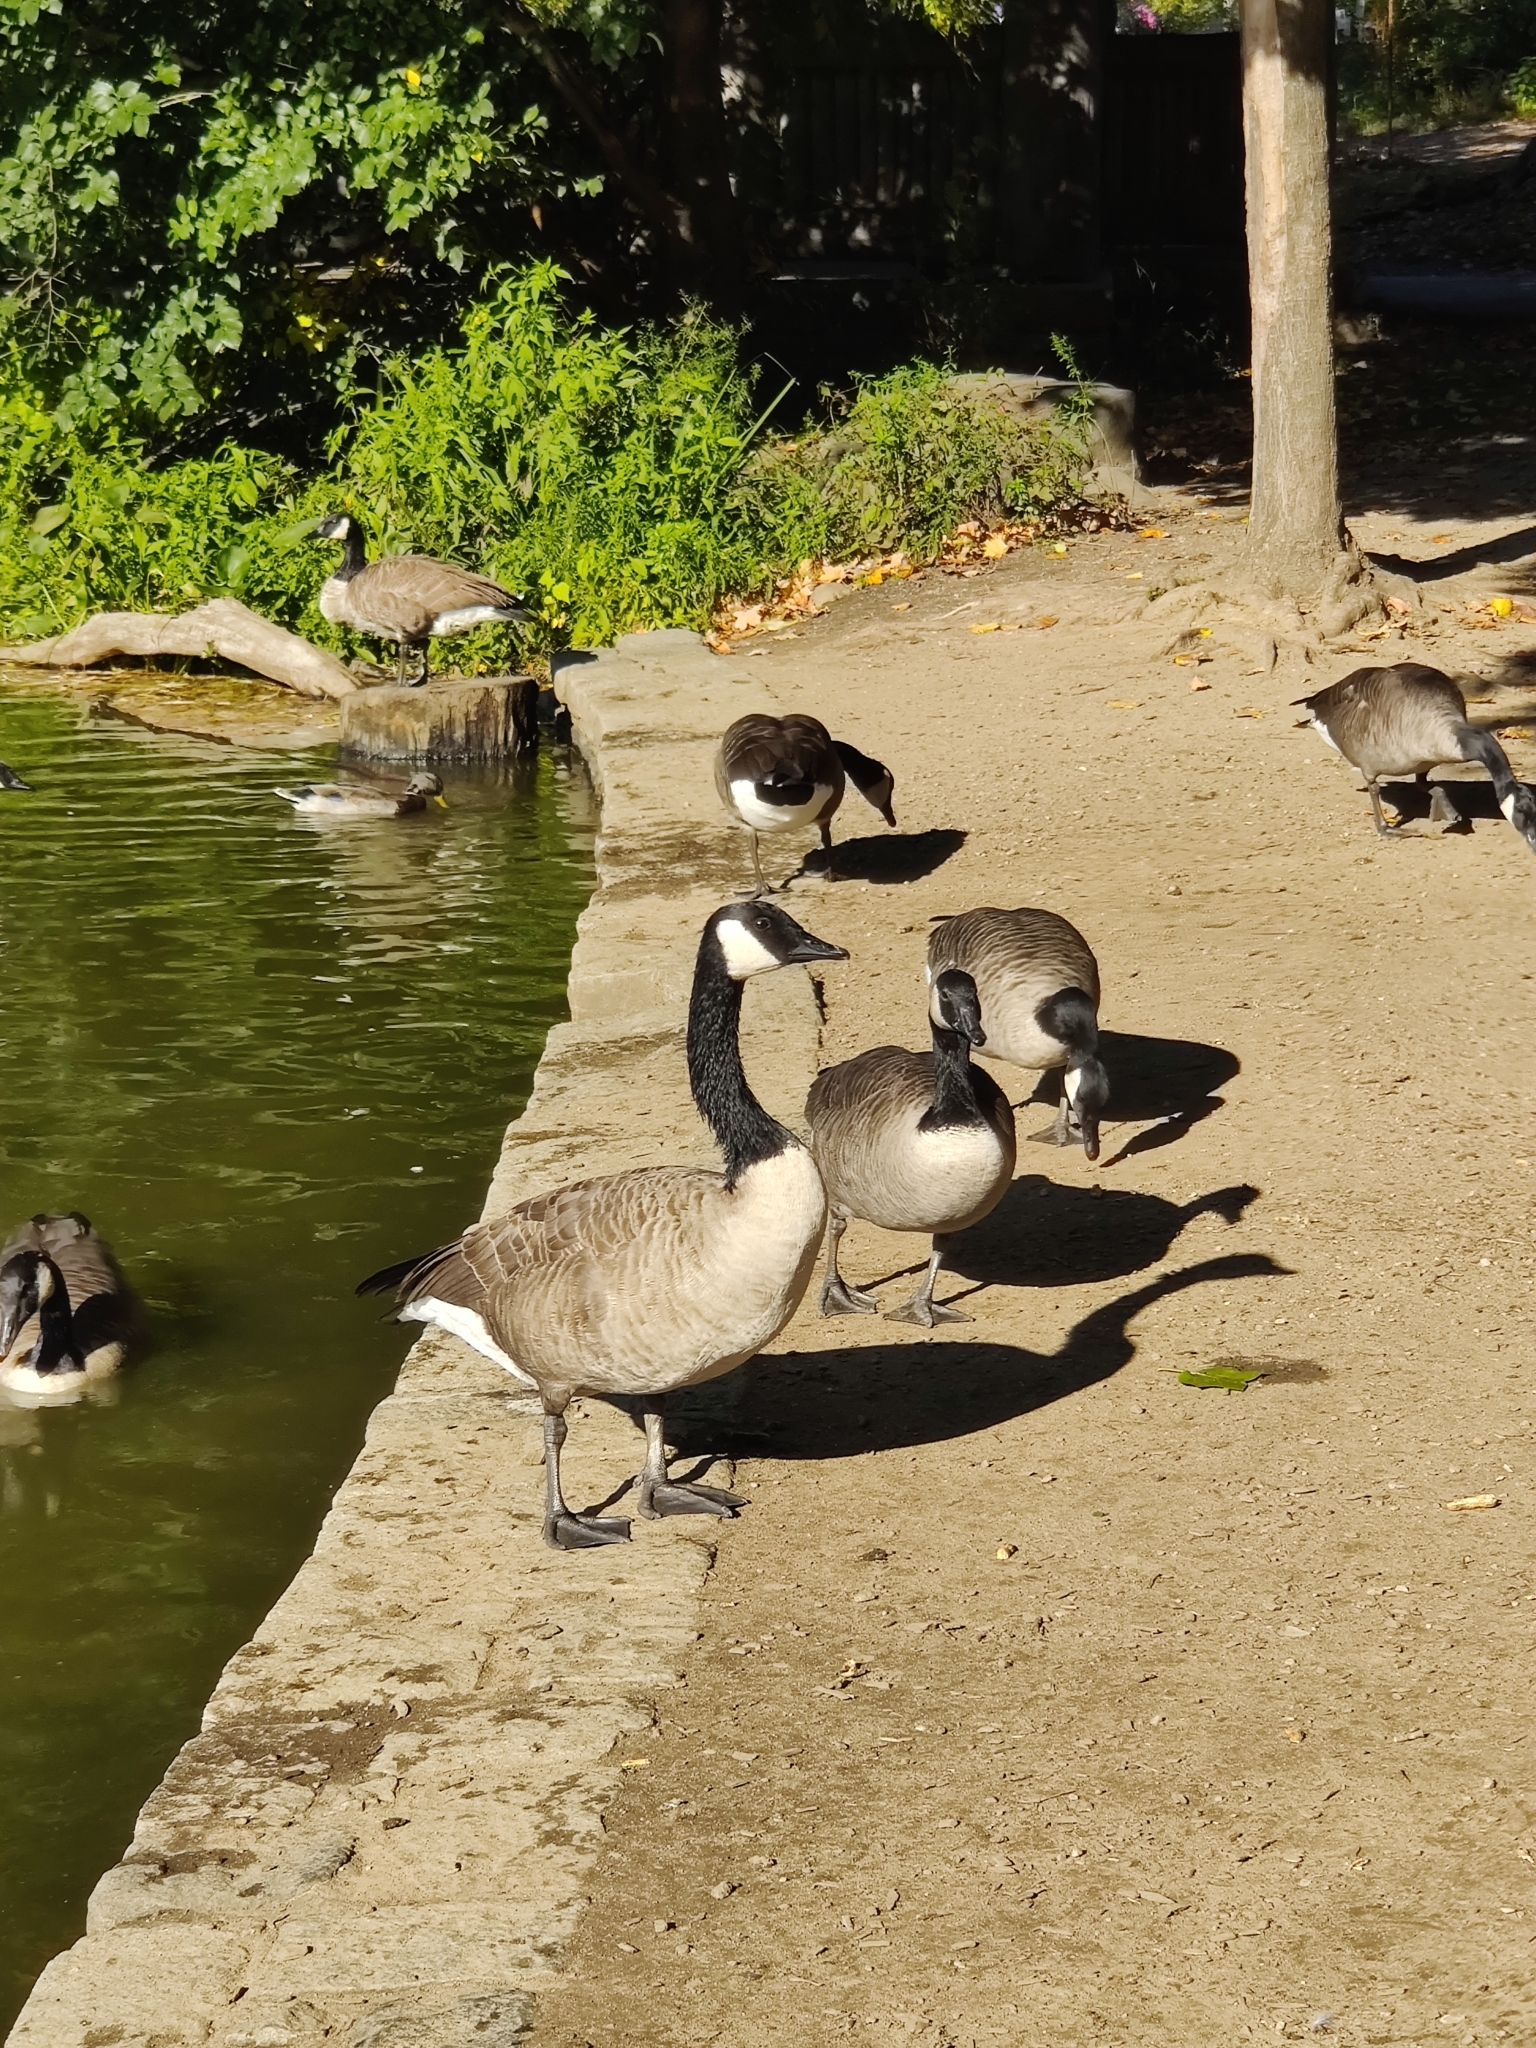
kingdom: Animalia
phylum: Chordata
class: Aves
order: Anseriformes
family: Anatidae
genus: Branta
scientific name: Branta canadensis
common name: Canada goose
